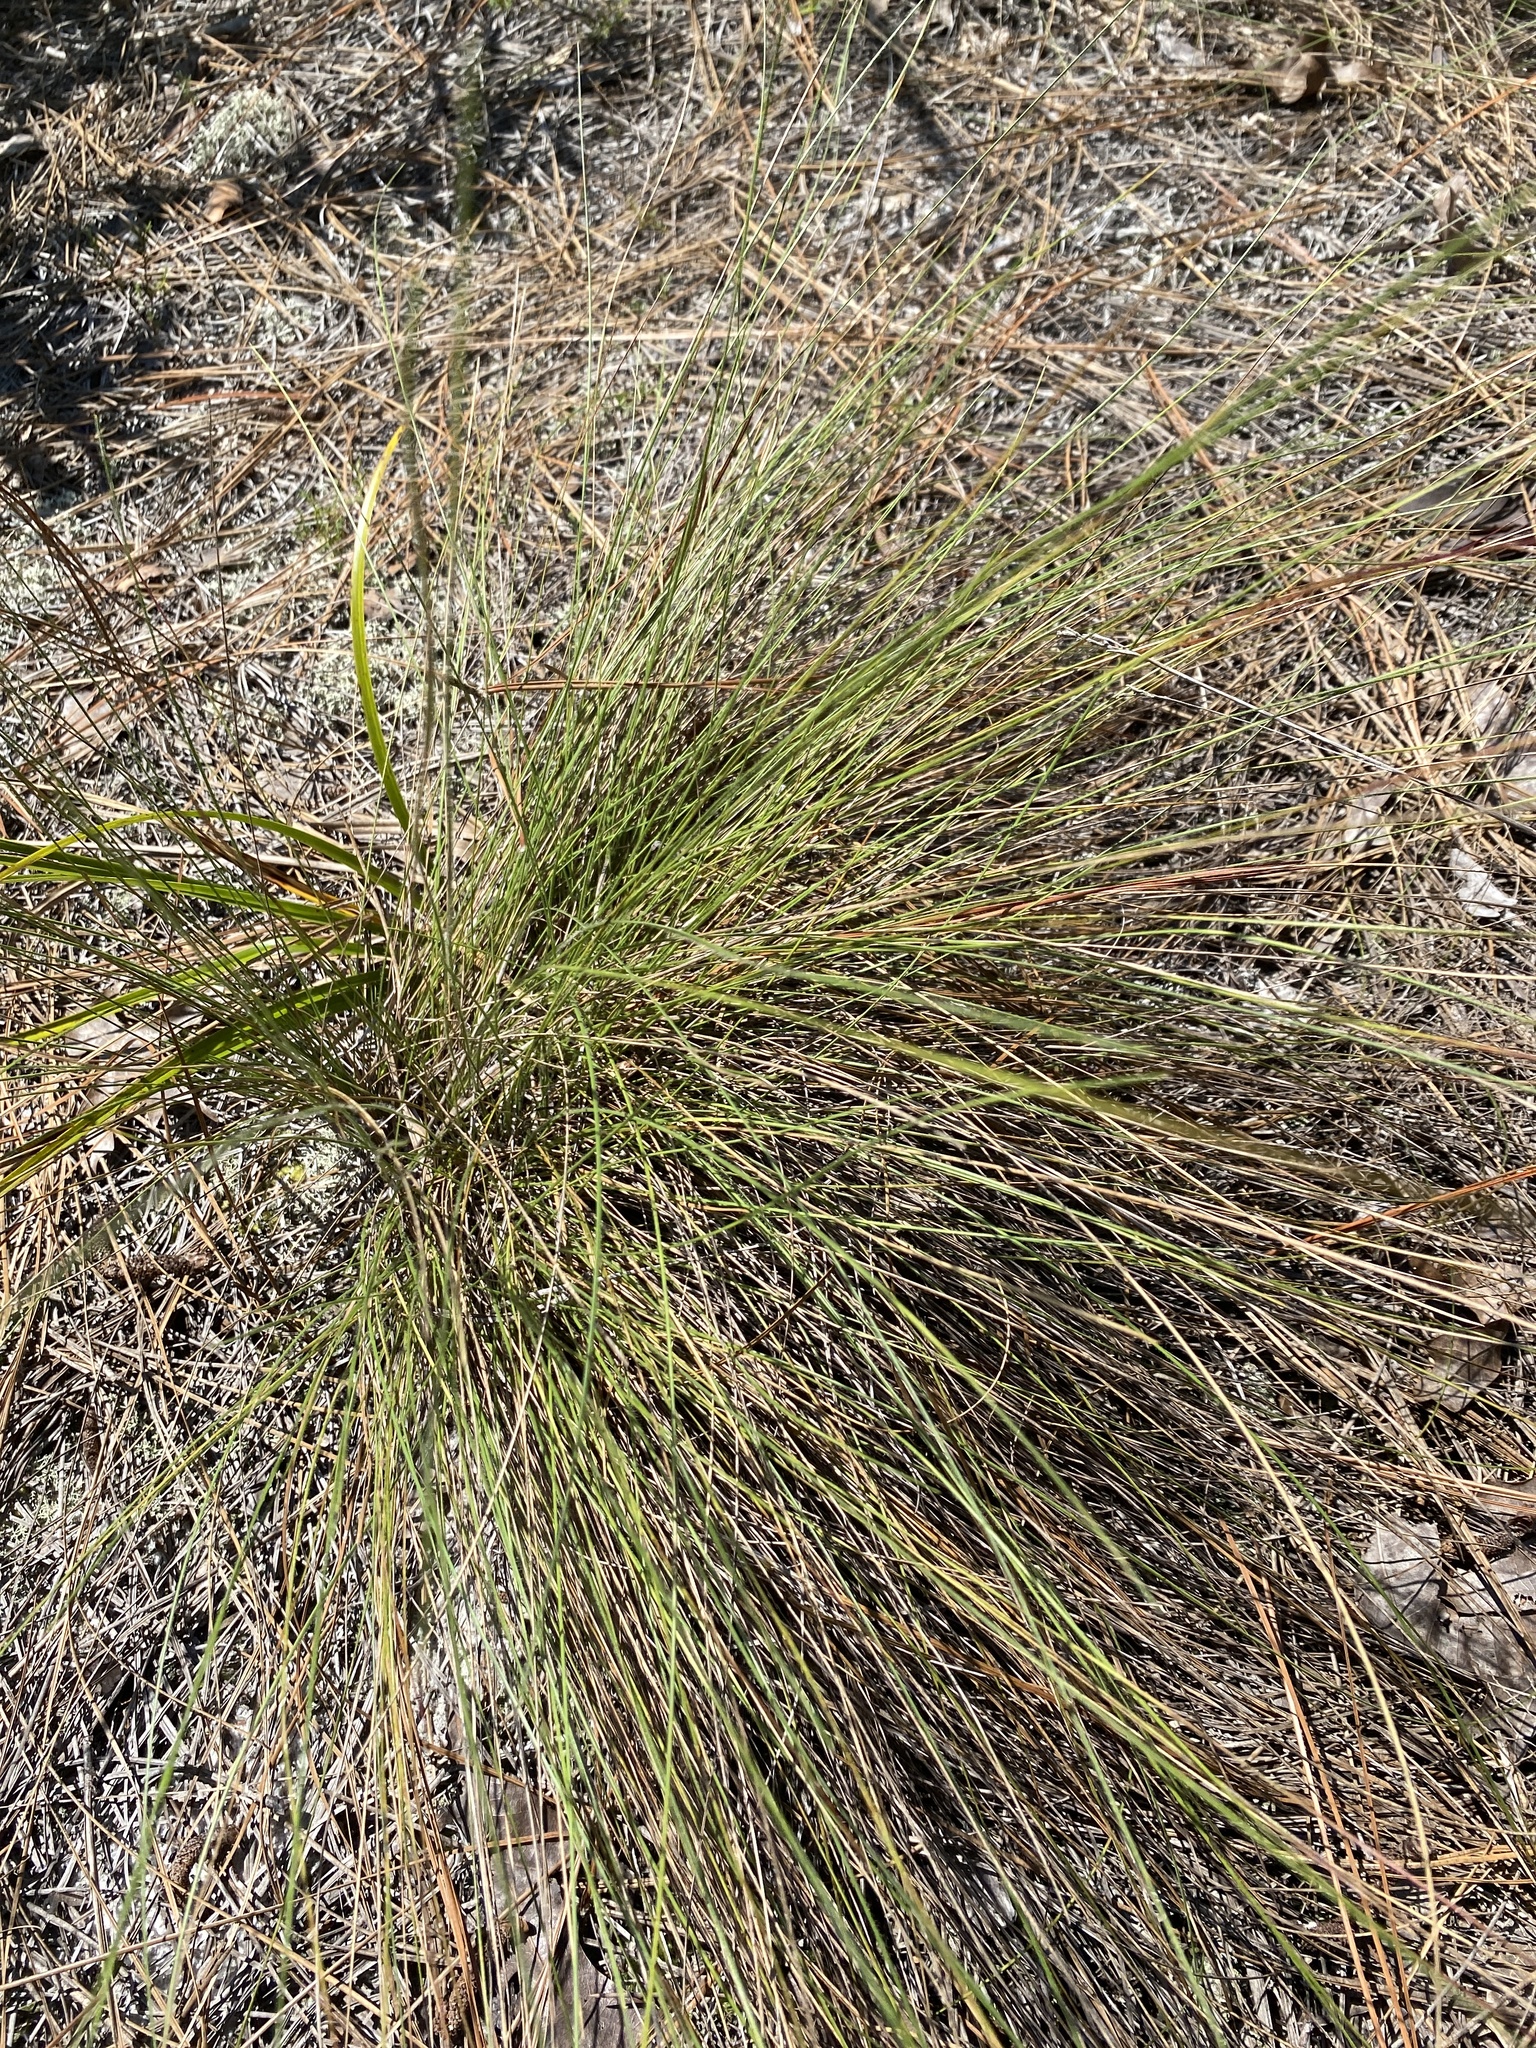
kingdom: Plantae
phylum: Tracheophyta
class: Liliopsida
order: Poales
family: Poaceae
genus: Aristida
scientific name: Aristida stricta
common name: Pineland three-awn
